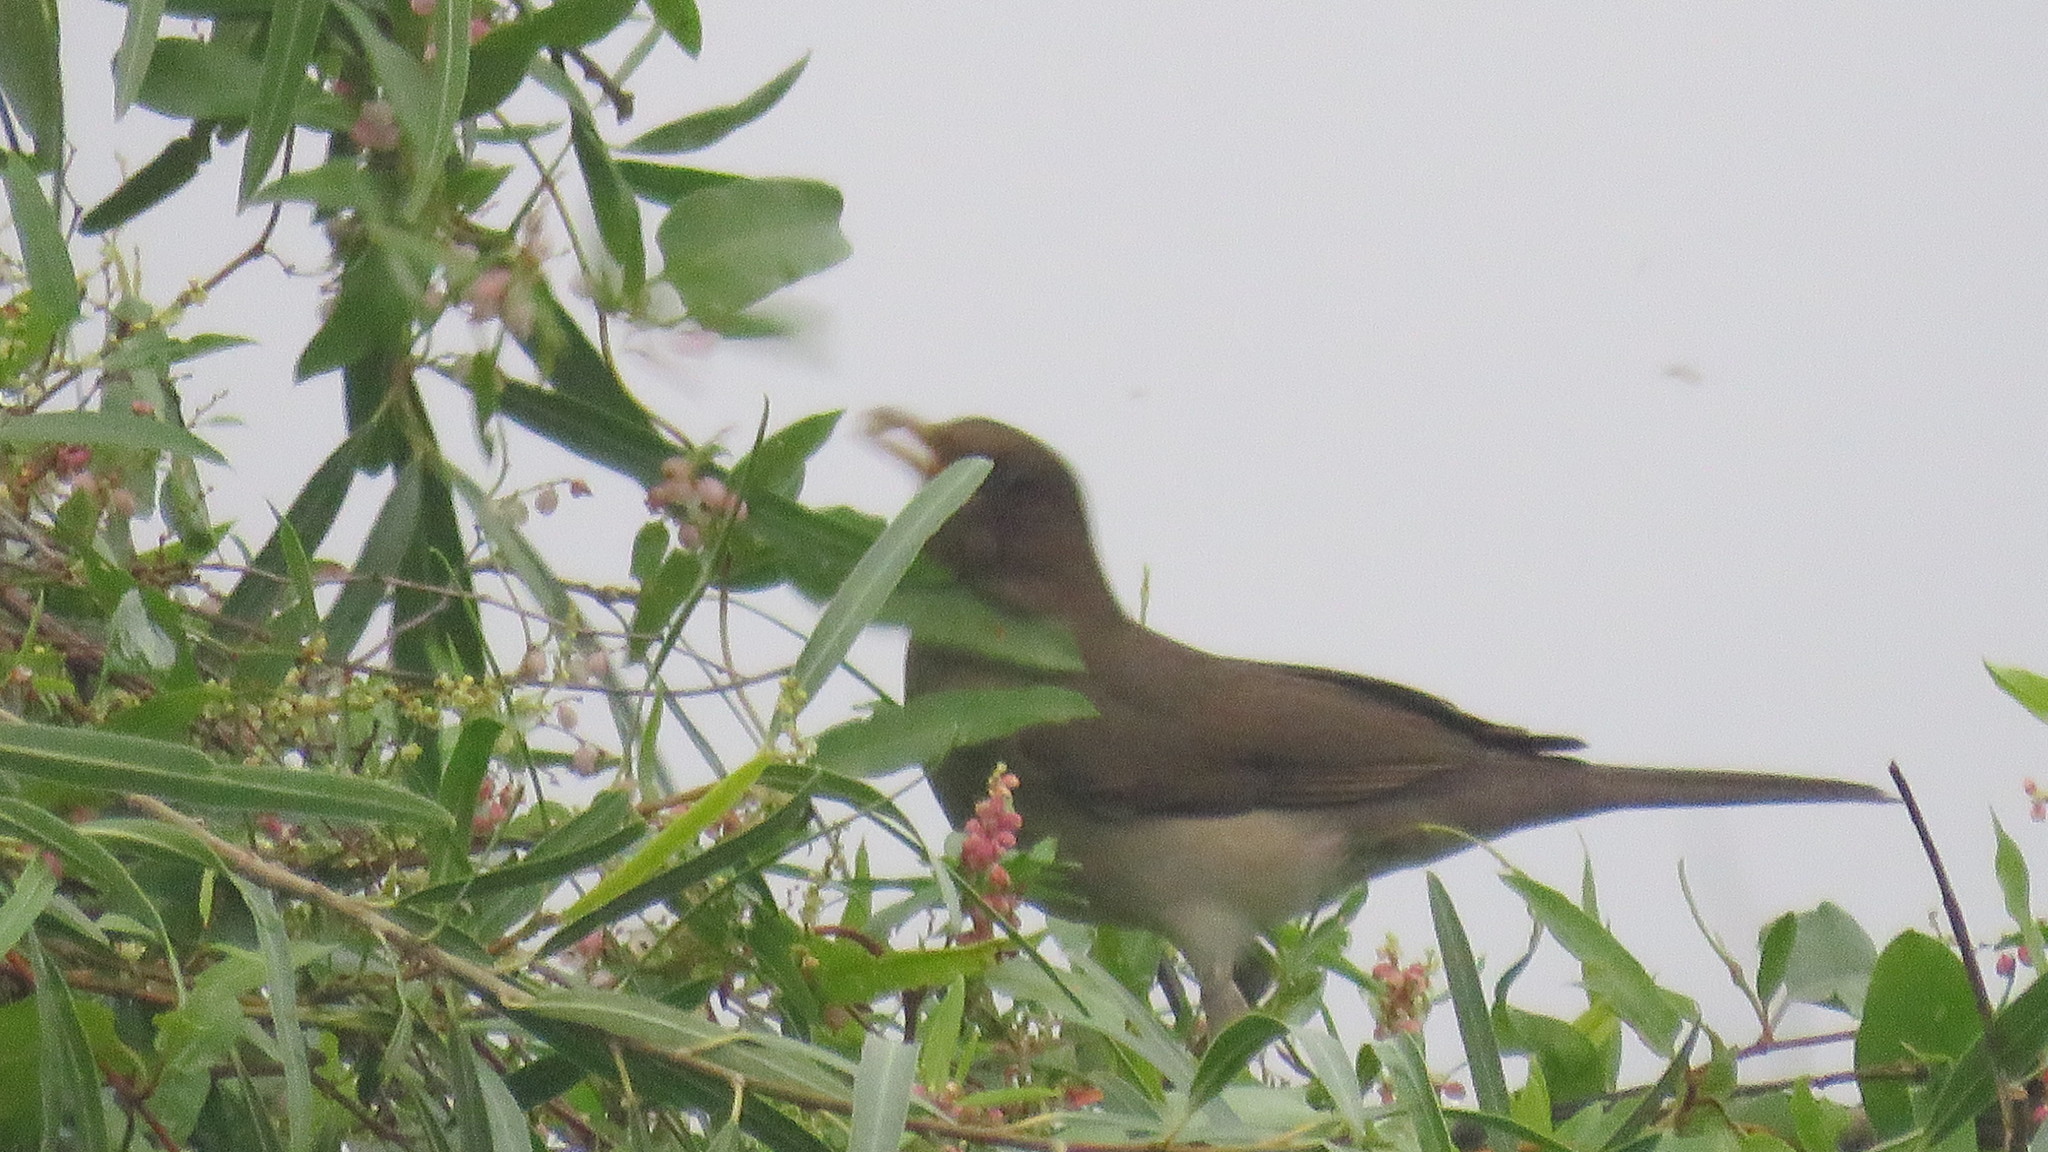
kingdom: Animalia
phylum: Chordata
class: Aves
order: Passeriformes
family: Turdidae
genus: Turdus
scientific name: Turdus amaurochalinus
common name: Creamy-bellied thrush
